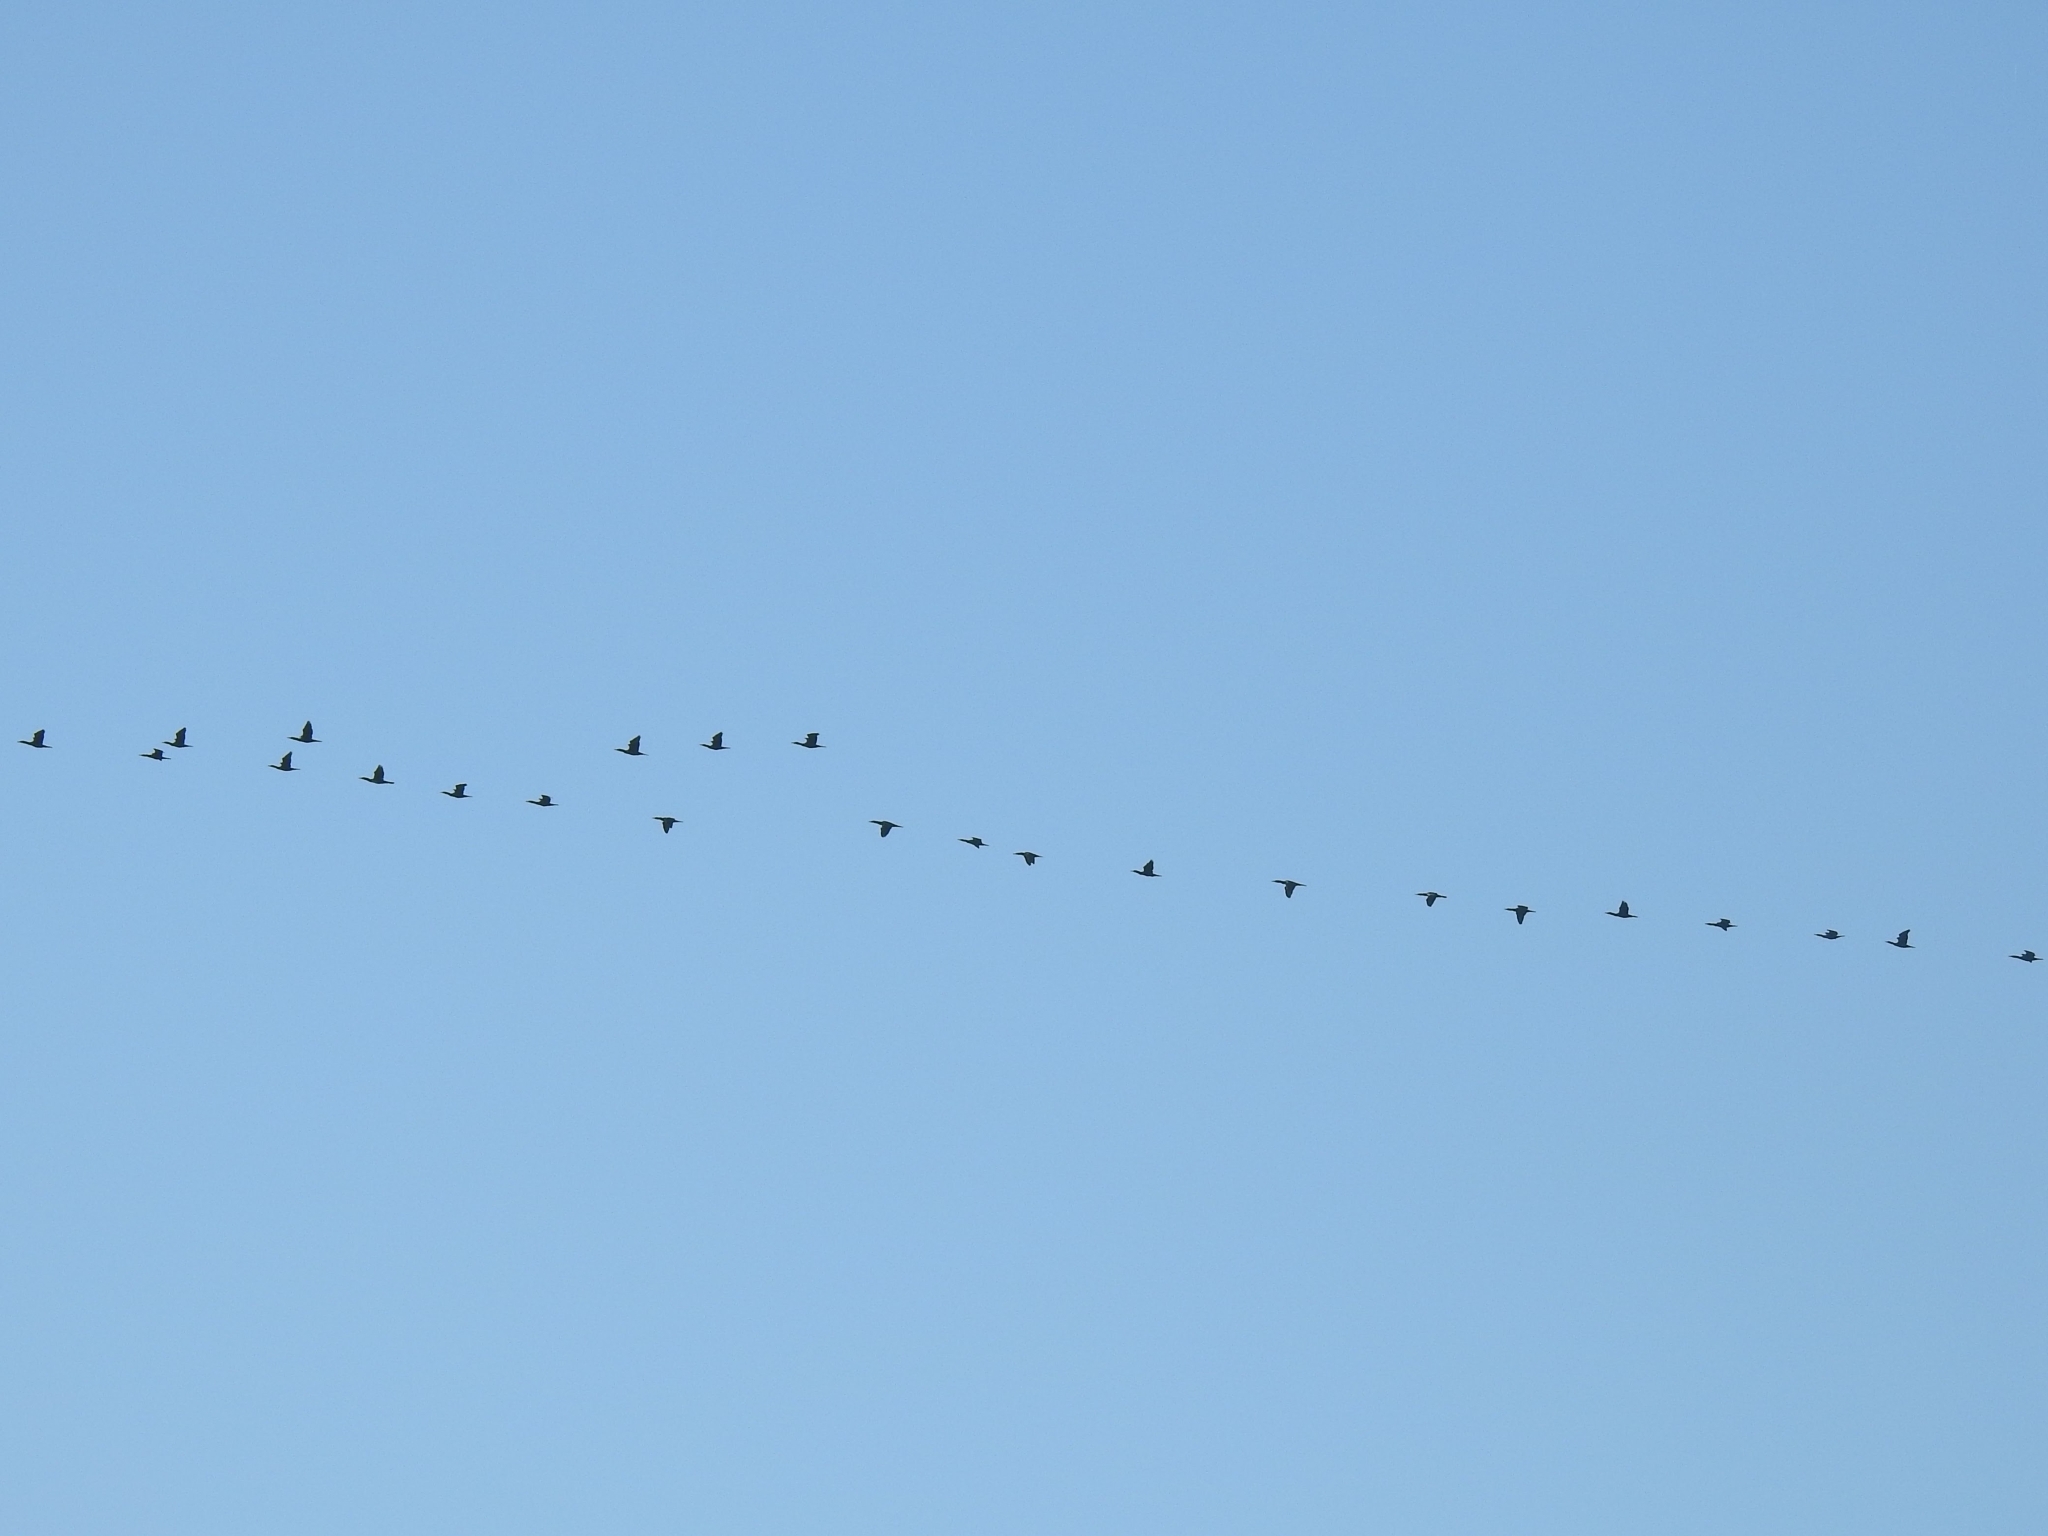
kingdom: Animalia
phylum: Chordata
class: Aves
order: Suliformes
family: Phalacrocoracidae
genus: Phalacrocorax
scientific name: Phalacrocorax carbo
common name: Great cormorant
